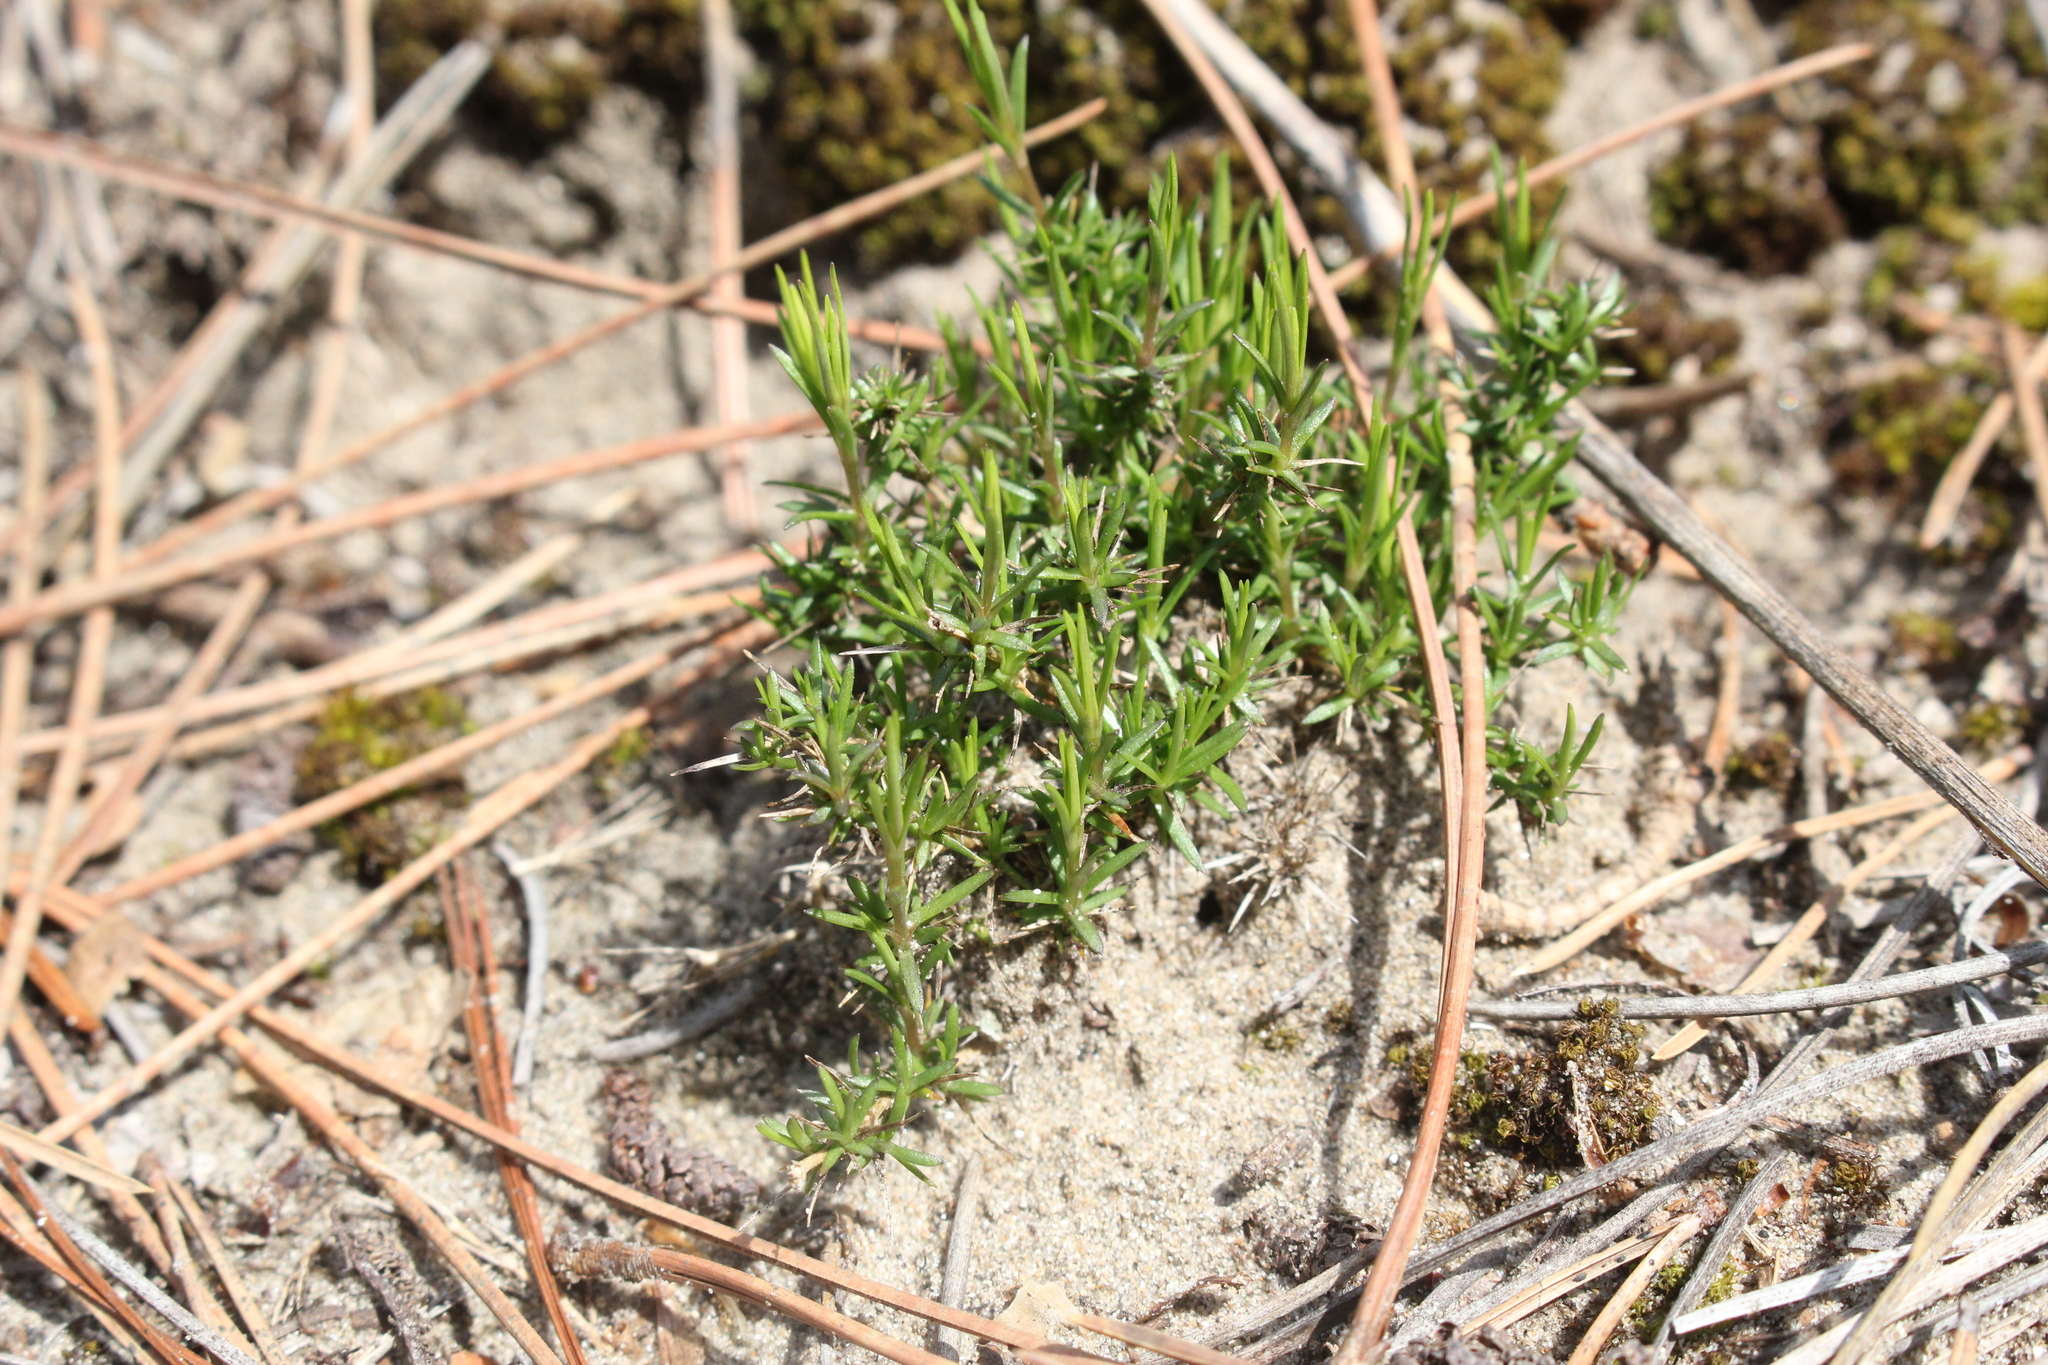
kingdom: Plantae
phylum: Tracheophyta
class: Magnoliopsida
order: Caryophyllales
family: Caryophyllaceae
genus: Sabulina
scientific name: Sabulina michauxii
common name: Michaux's stitchwort
